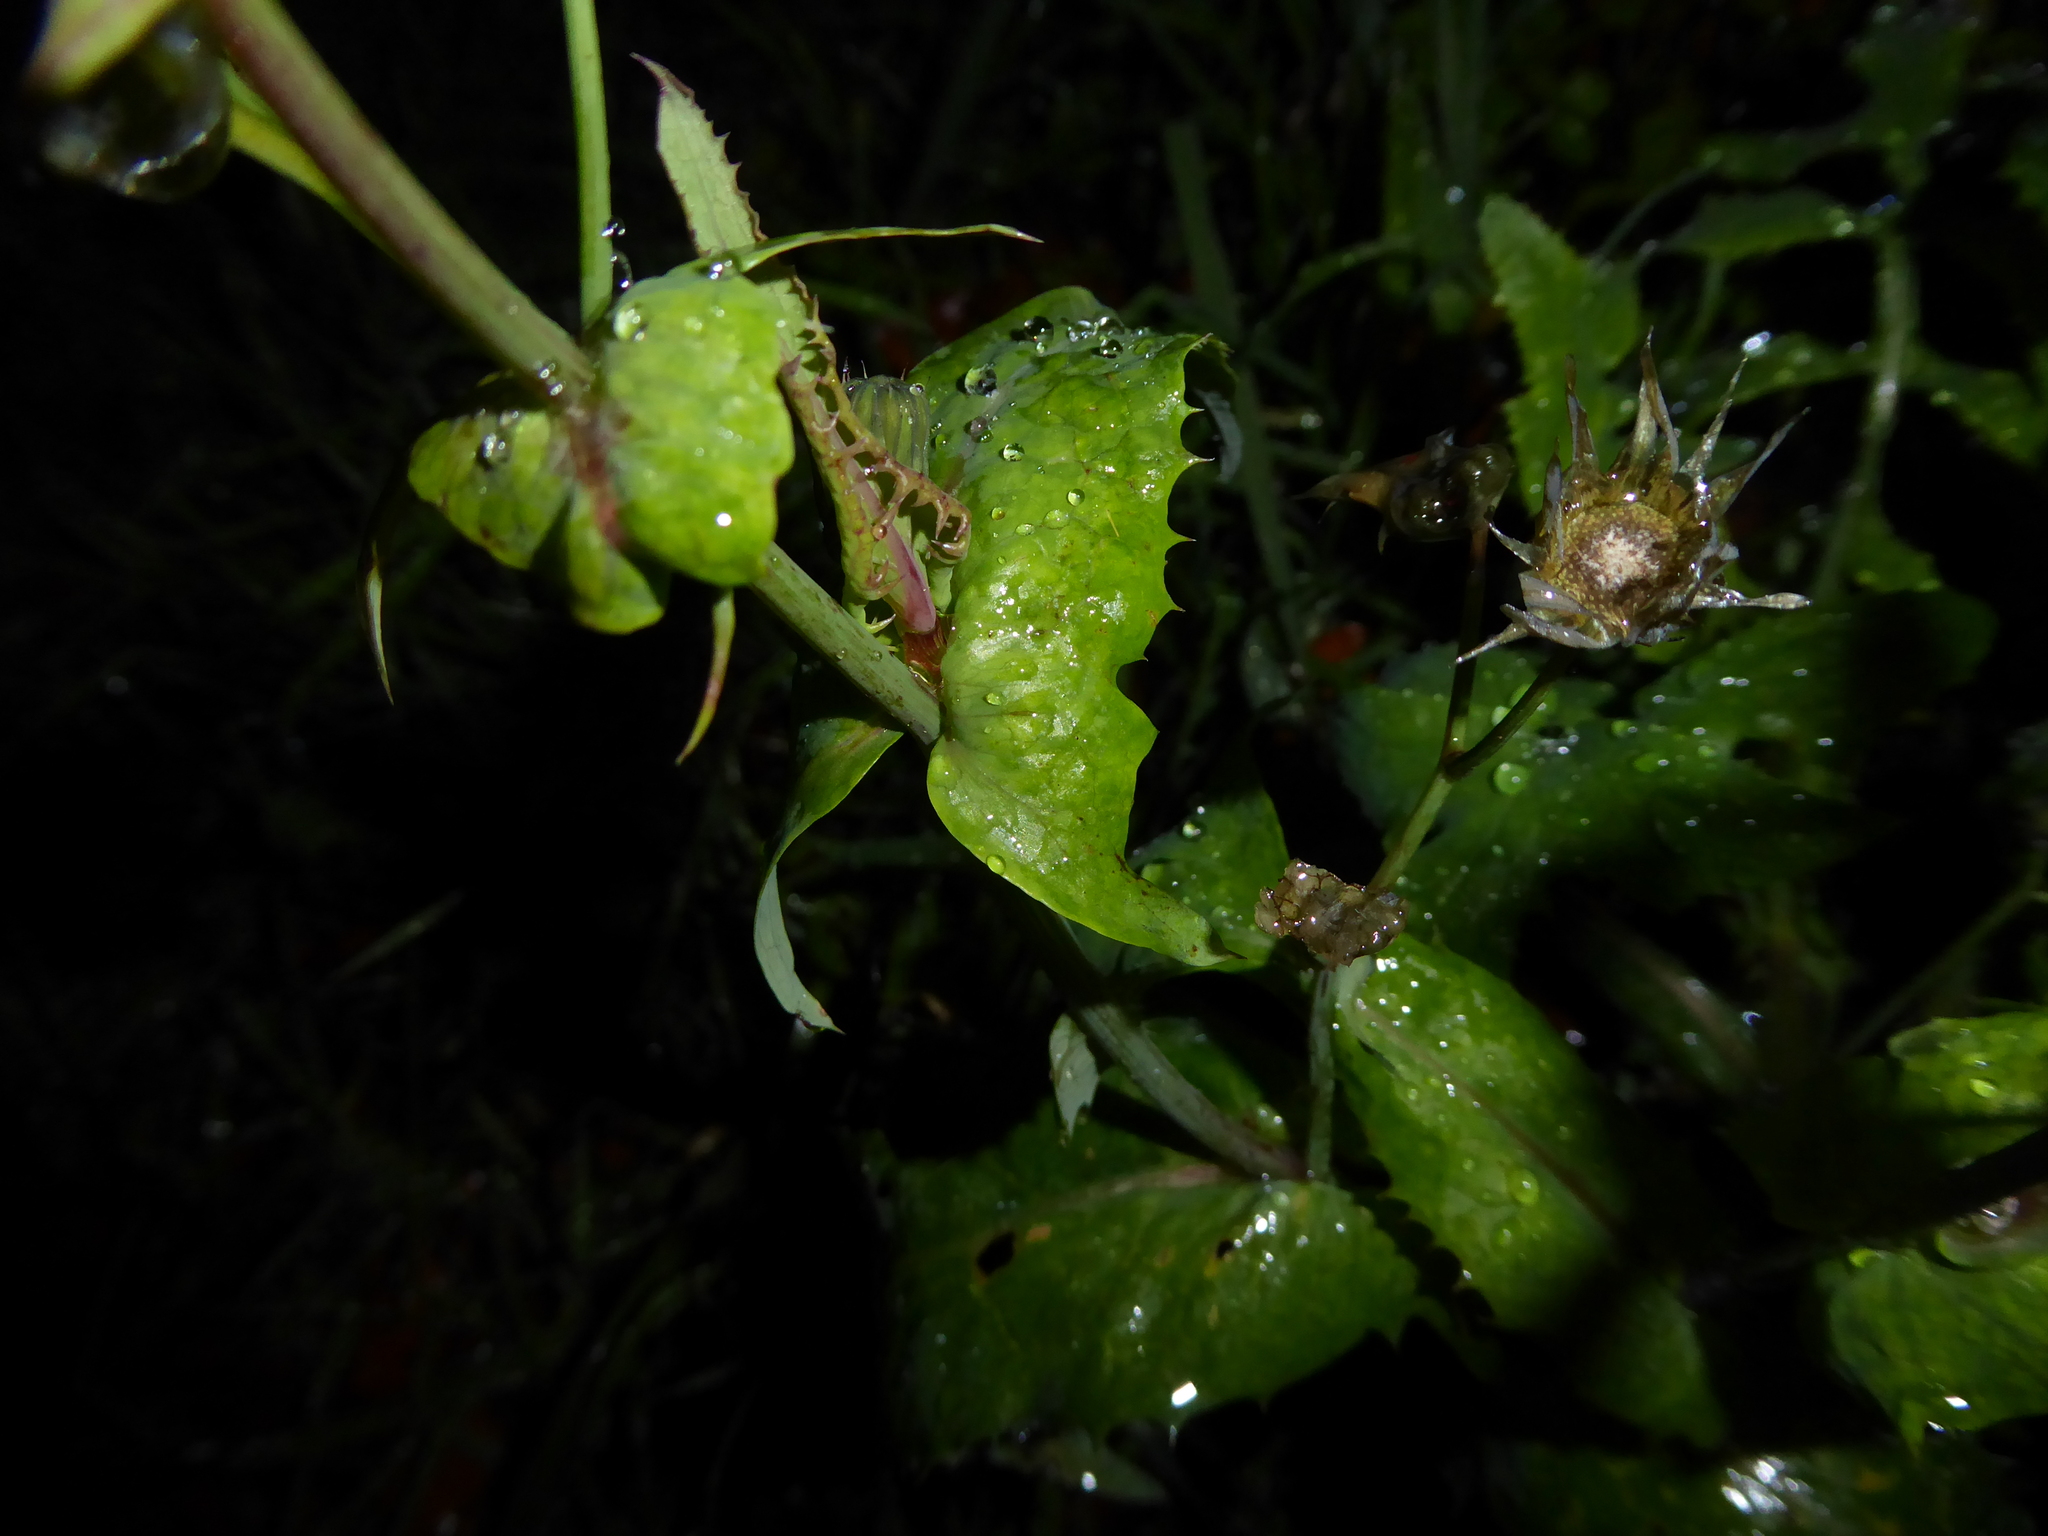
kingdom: Plantae
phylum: Tracheophyta
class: Magnoliopsida
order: Asterales
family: Asteraceae
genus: Sonchus
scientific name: Sonchus oleraceus
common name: Common sowthistle
